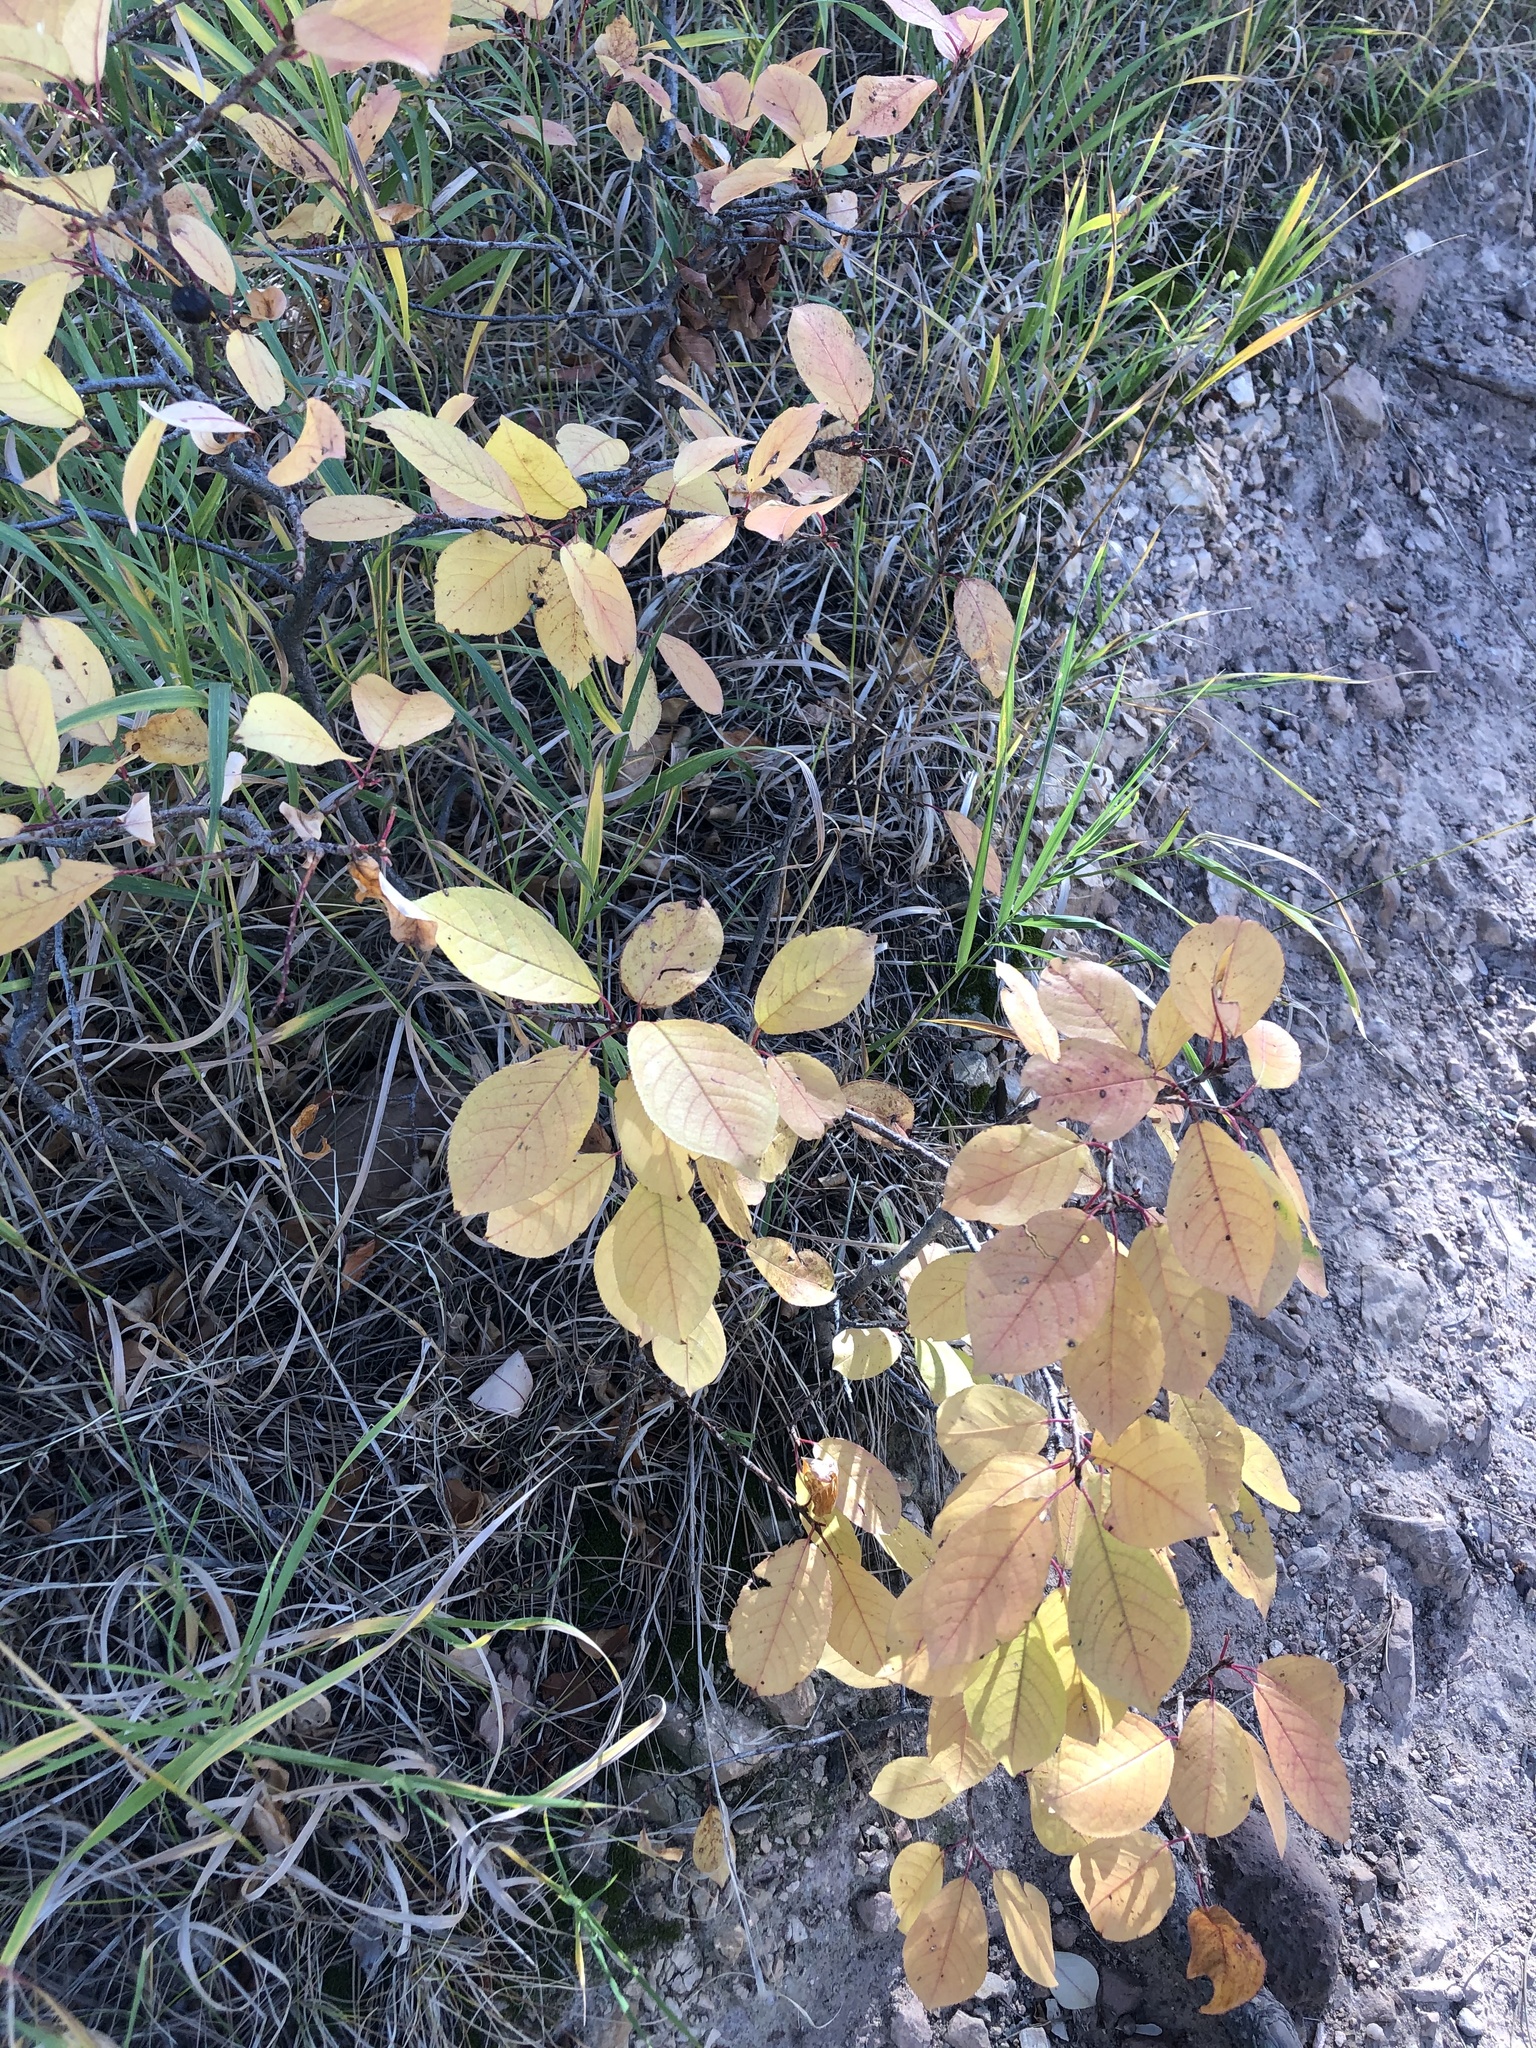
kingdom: Plantae
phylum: Tracheophyta
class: Magnoliopsida
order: Rosales
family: Rosaceae
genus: Prunus
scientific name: Prunus virginiana
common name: Chokecherry
